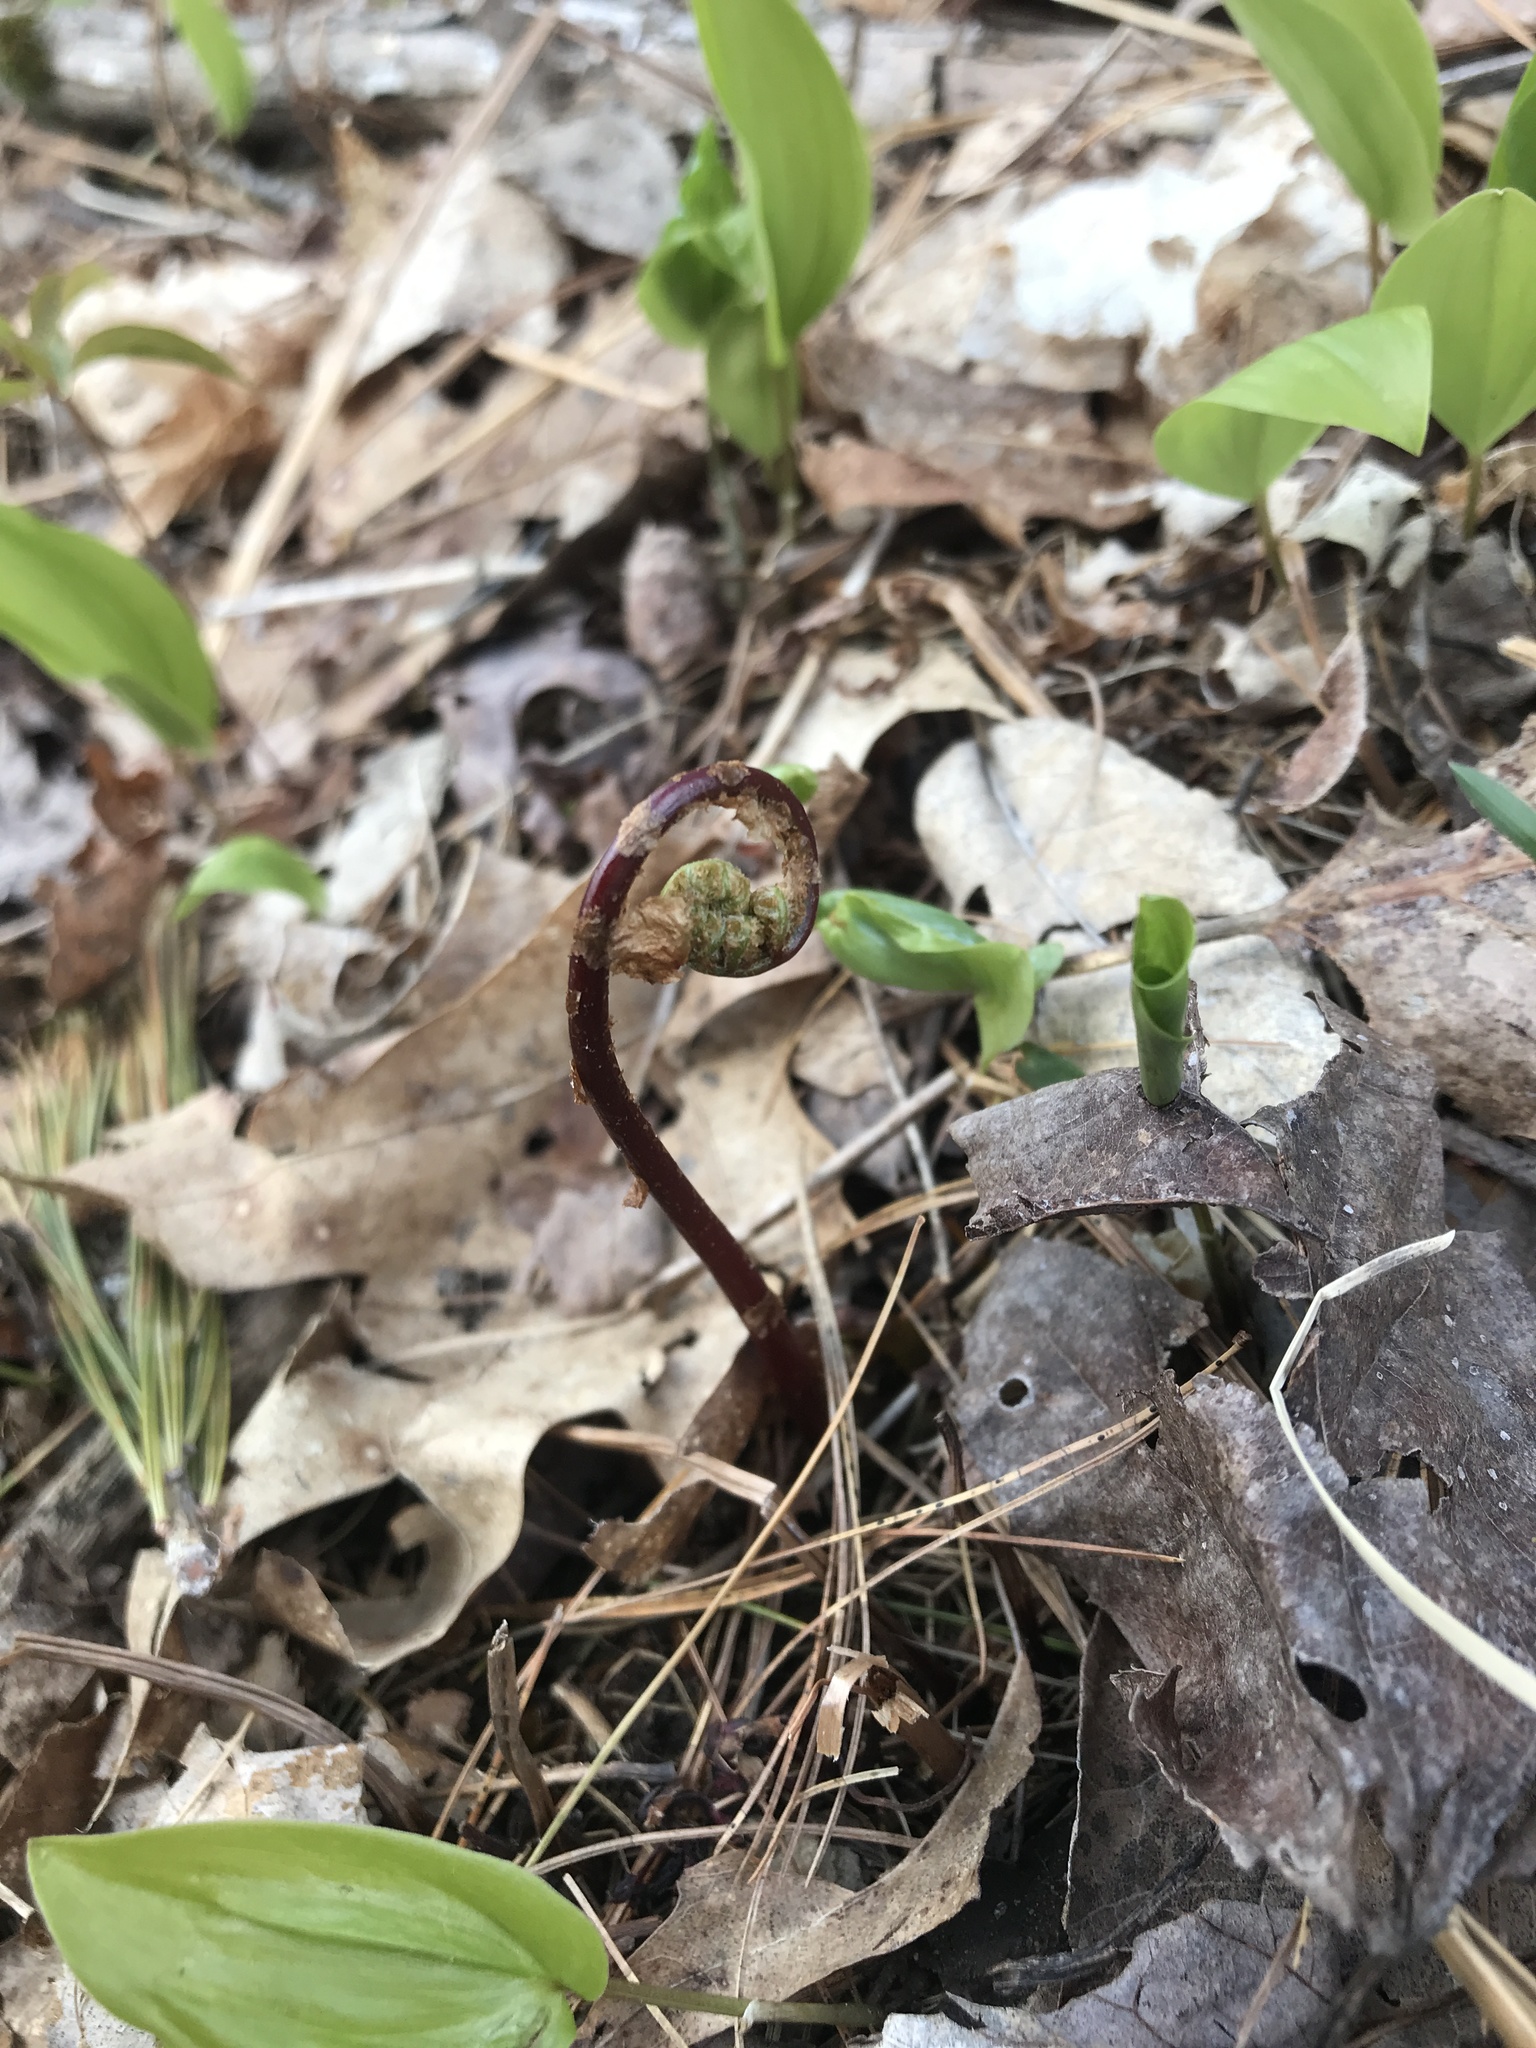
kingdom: Plantae
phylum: Tracheophyta
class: Polypodiopsida
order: Polypodiales
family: Onocleaceae
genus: Onoclea
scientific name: Onoclea sensibilis
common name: Sensitive fern
